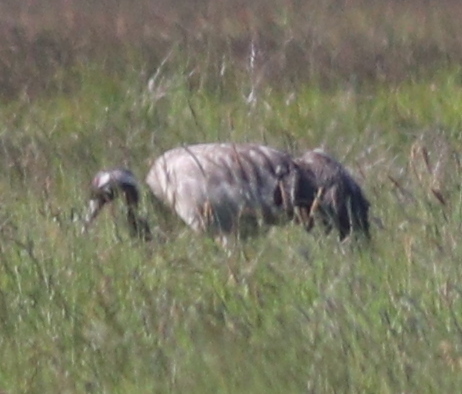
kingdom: Animalia
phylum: Chordata
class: Aves
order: Gruiformes
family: Gruidae
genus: Grus
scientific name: Grus grus
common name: Common crane
